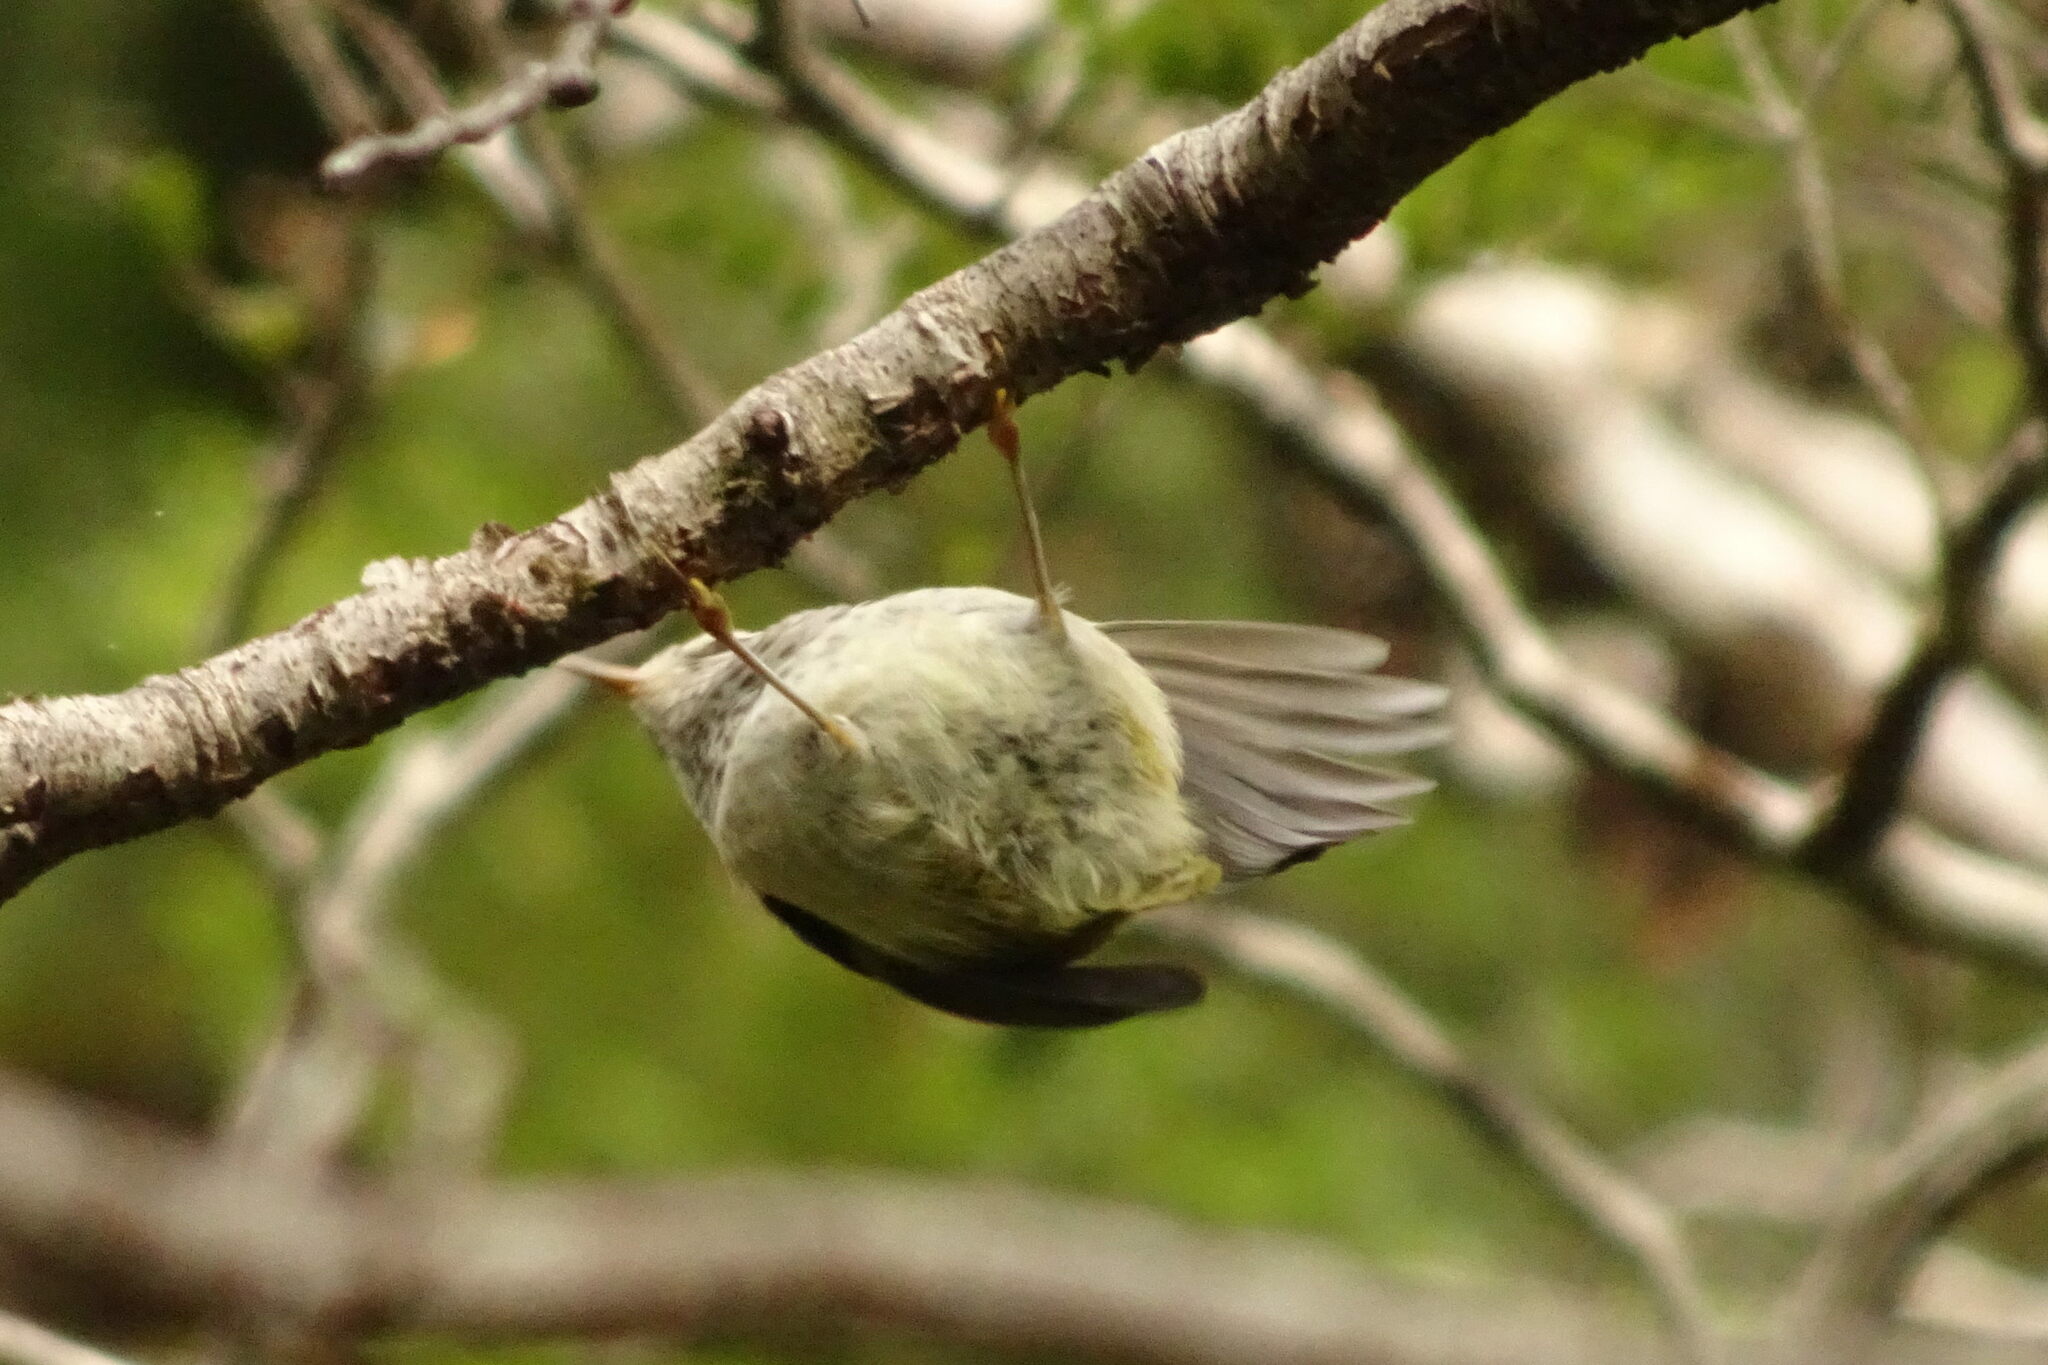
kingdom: Animalia
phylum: Chordata
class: Aves
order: Passeriformes
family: Acanthisittidae
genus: Acanthisitta
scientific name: Acanthisitta chloris
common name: Rifleman
